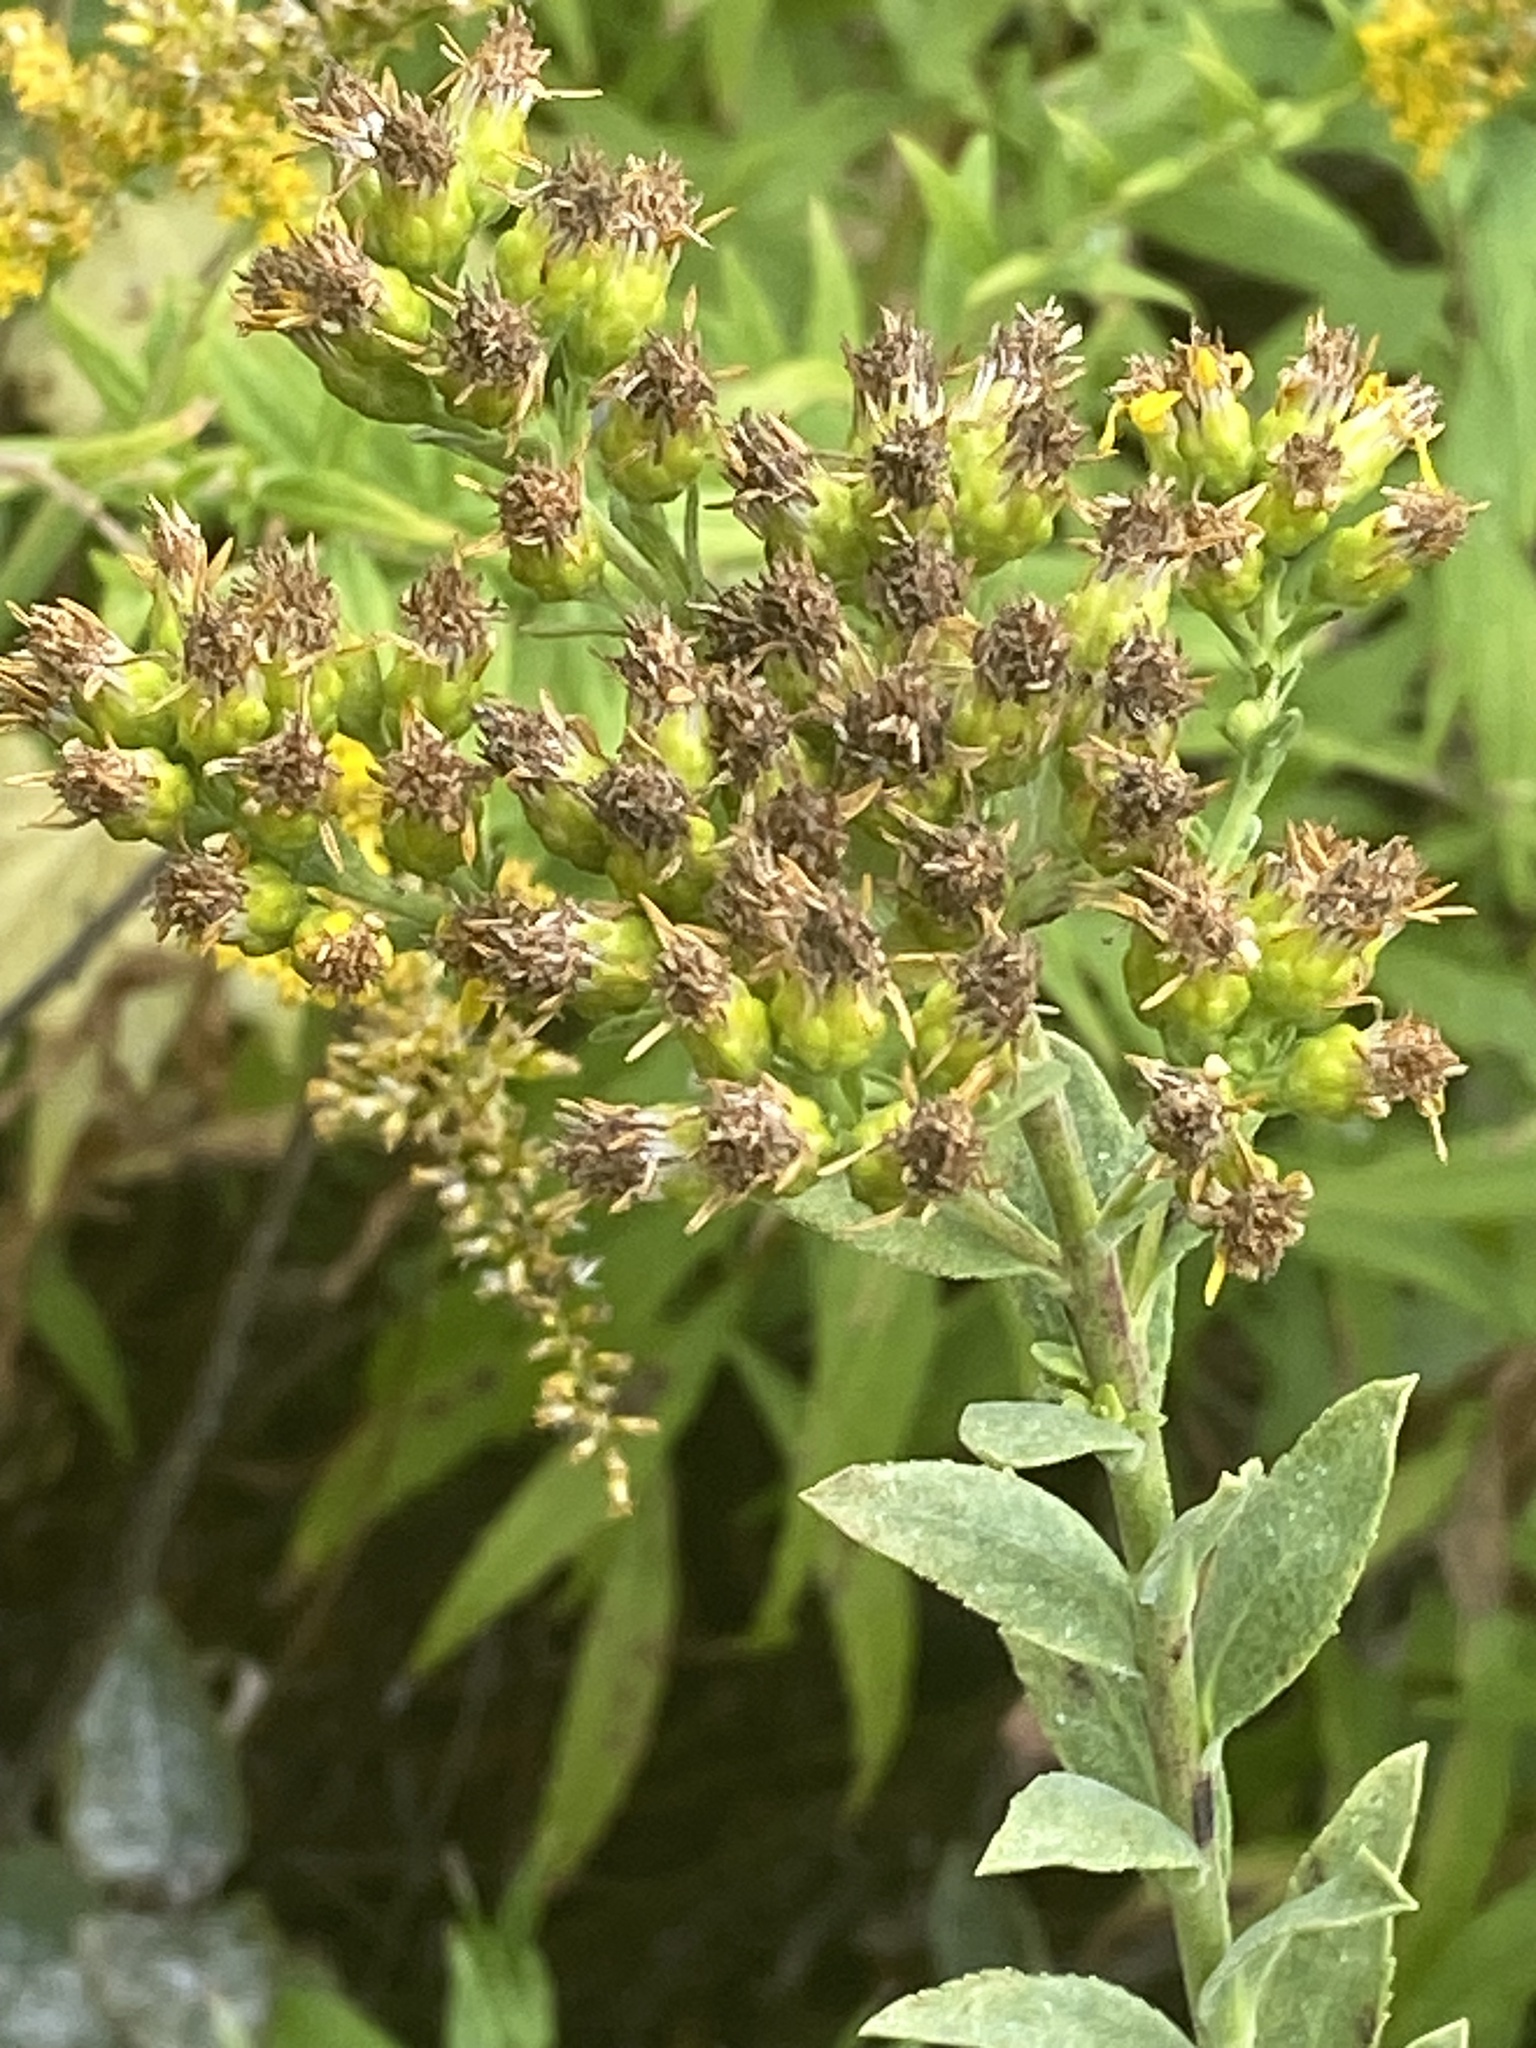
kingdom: Plantae
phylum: Tracheophyta
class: Magnoliopsida
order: Asterales
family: Asteraceae
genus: Solidago
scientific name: Solidago rigida
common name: Rigid goldenrod
